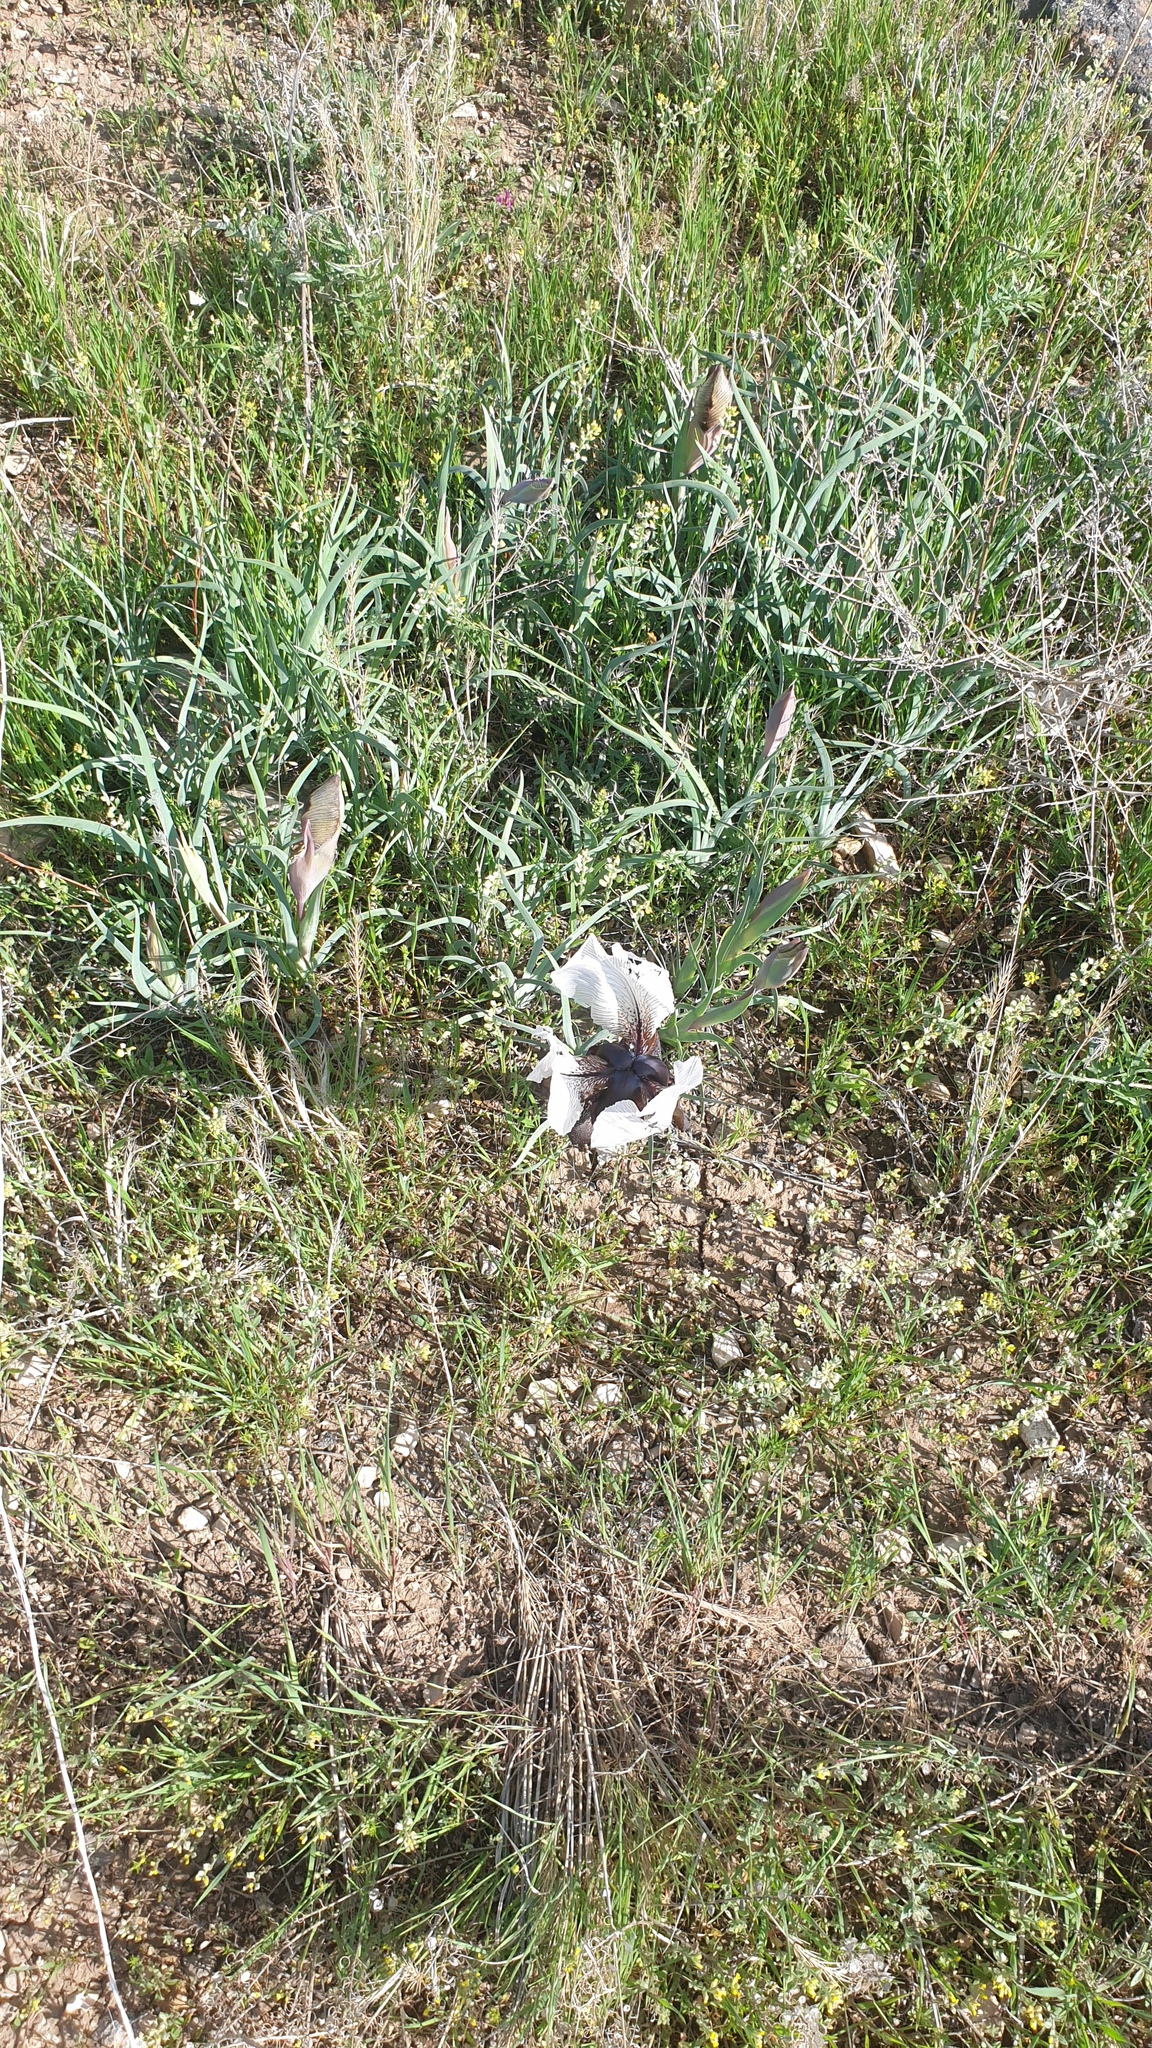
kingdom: Plantae
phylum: Tracheophyta
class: Liliopsida
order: Asparagales
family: Iridaceae
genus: Iris
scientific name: Iris iberica
